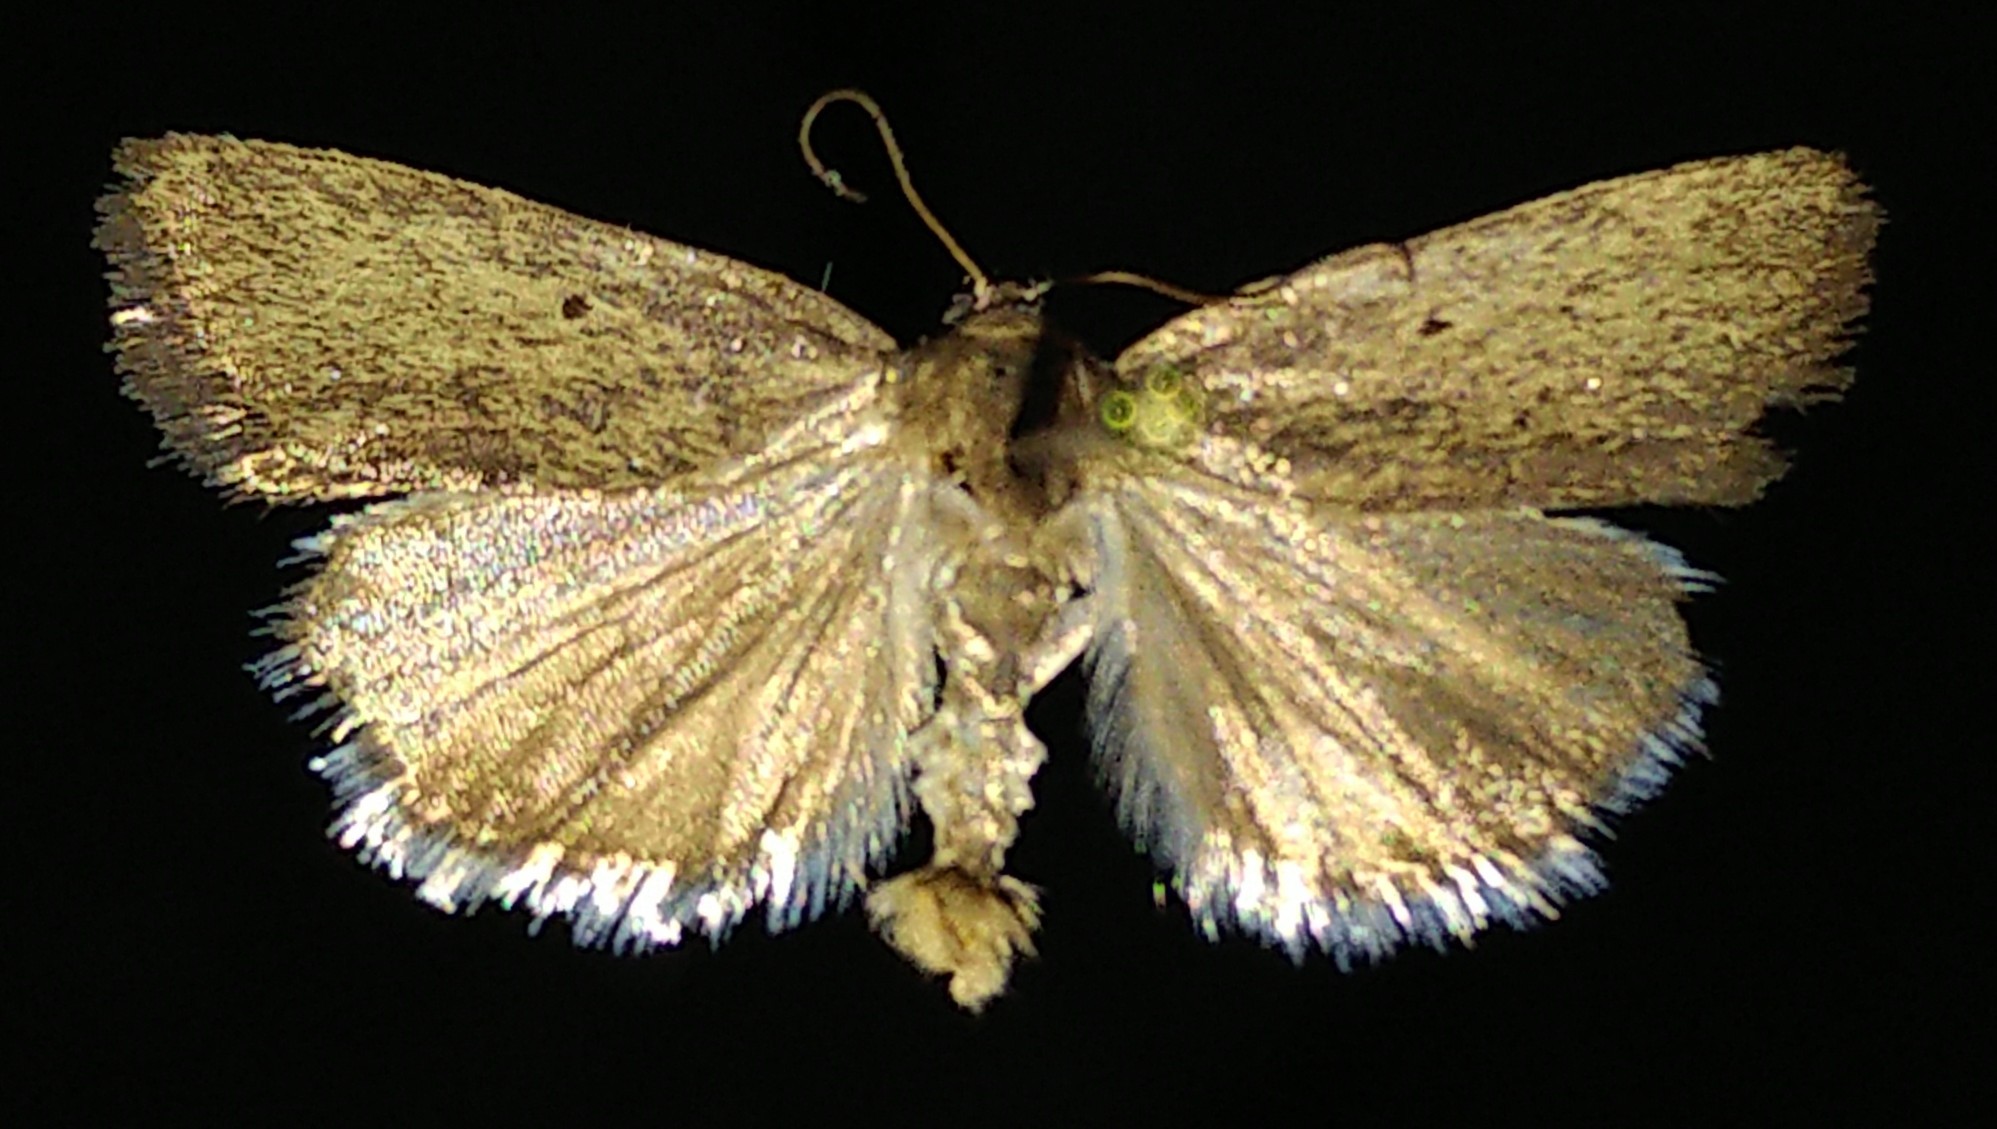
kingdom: Animalia
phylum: Arthropoda
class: Insecta
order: Lepidoptera
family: Noctuidae
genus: Acontia
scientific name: Acontia tortricina
